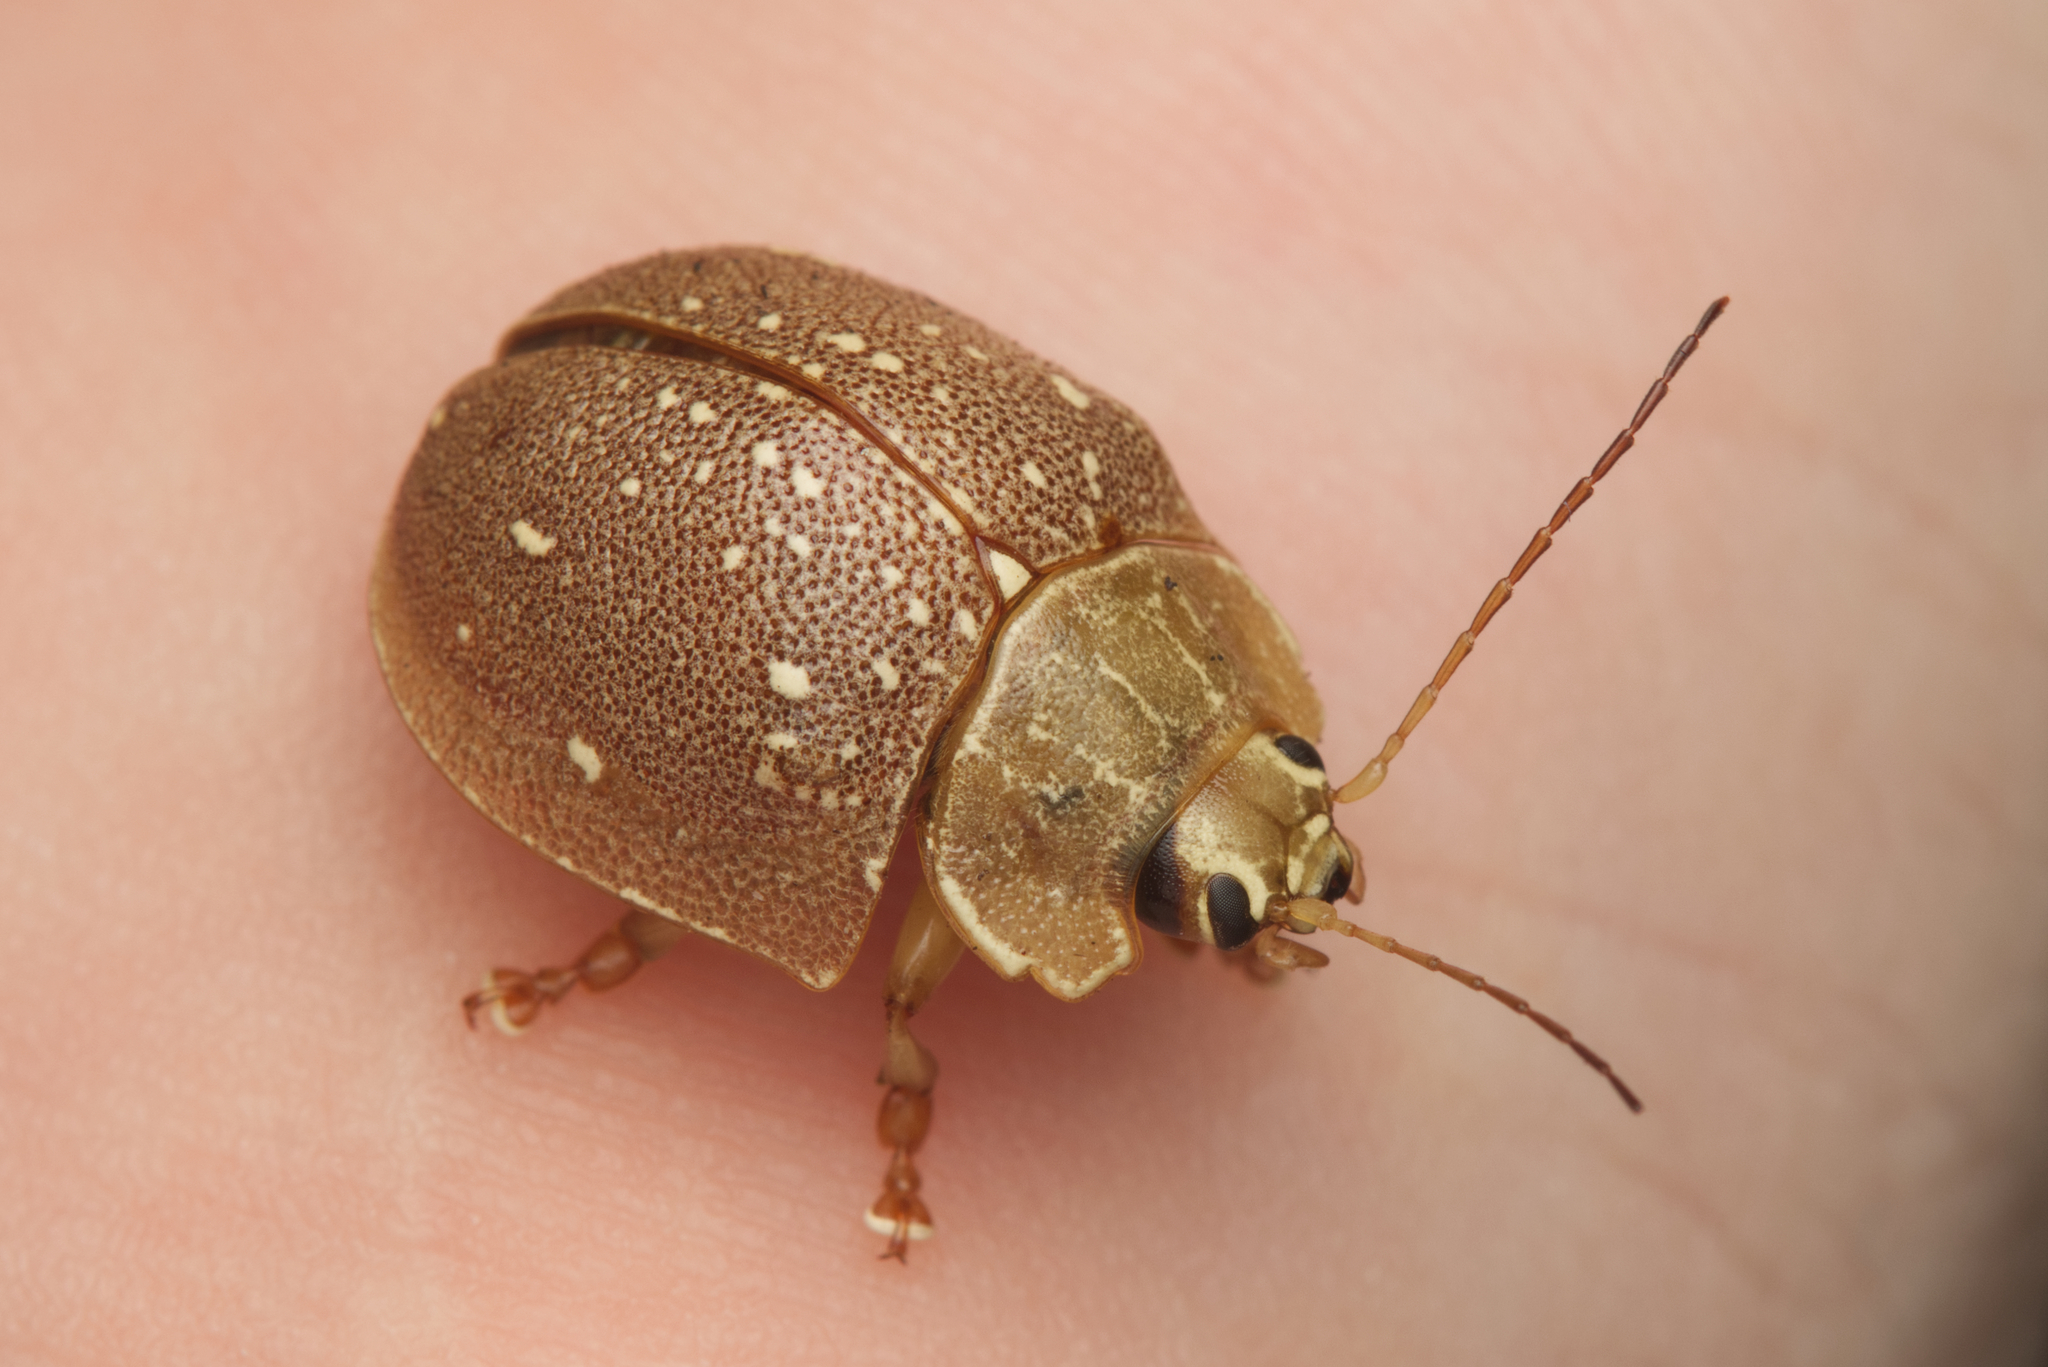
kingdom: Animalia
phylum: Arthropoda
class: Insecta
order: Coleoptera
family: Chrysomelidae
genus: Paropsis
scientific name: Paropsis
